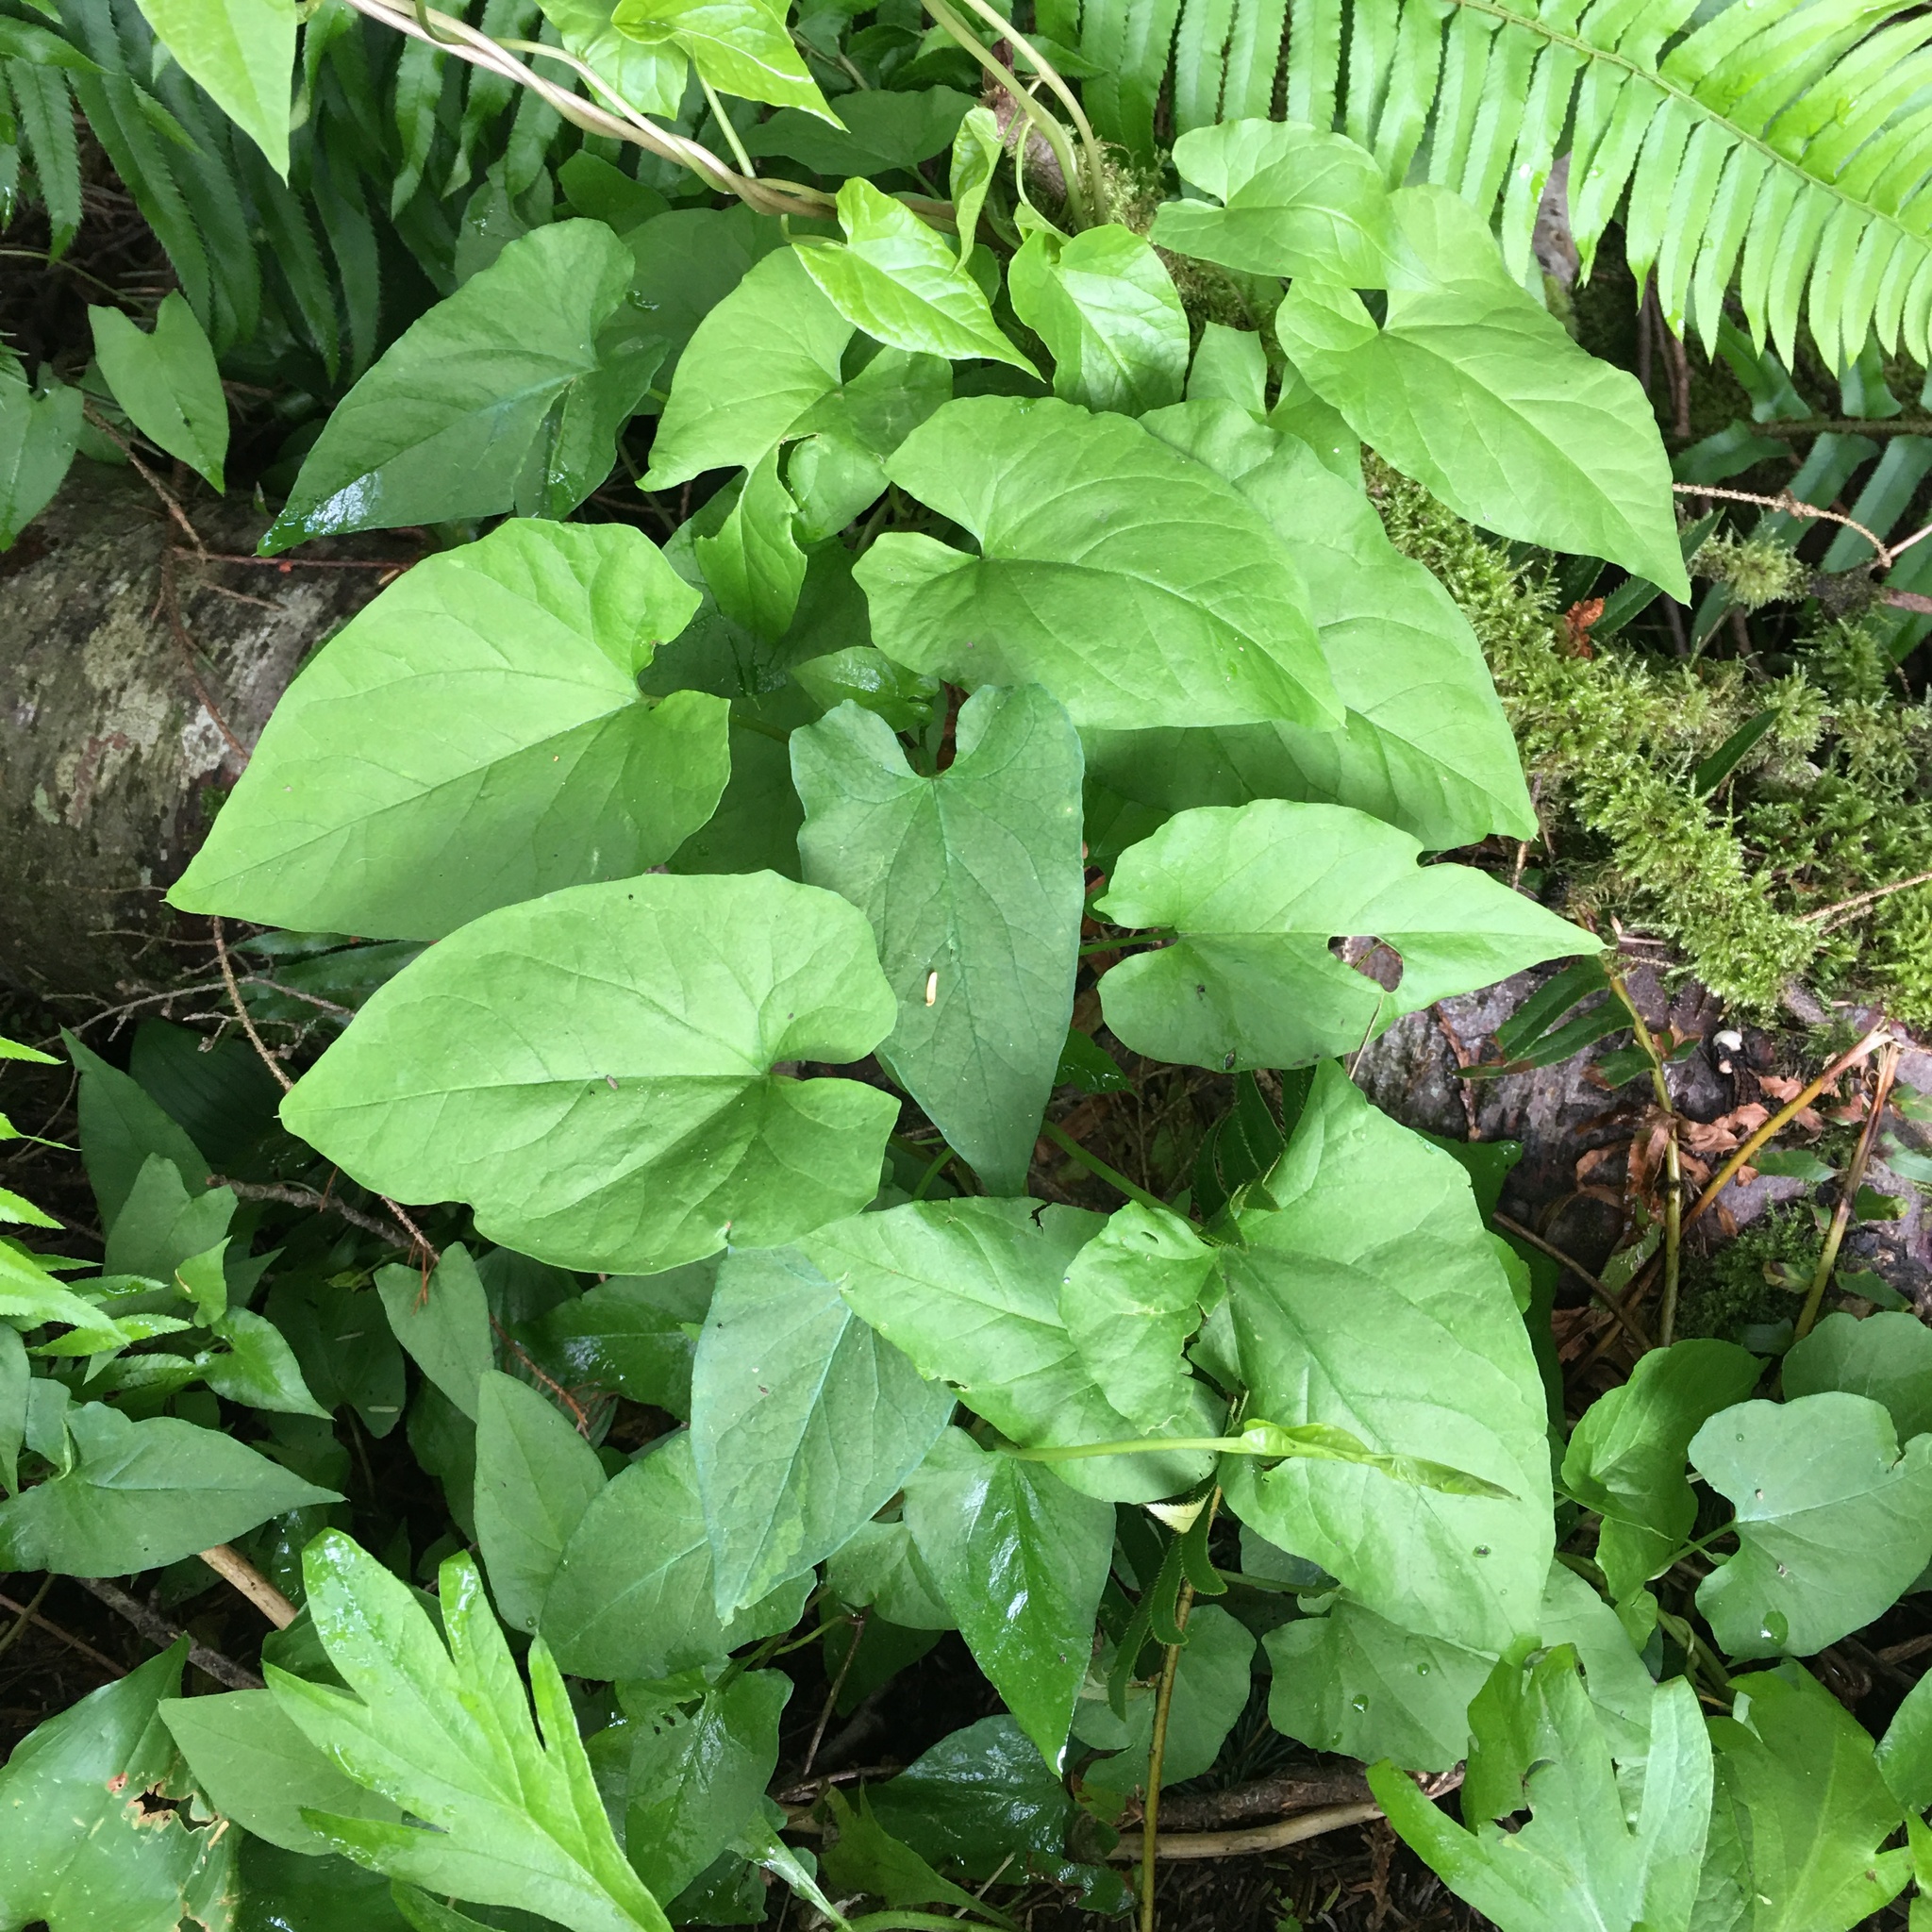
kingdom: Plantae
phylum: Tracheophyta
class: Magnoliopsida
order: Solanales
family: Convolvulaceae
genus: Calystegia
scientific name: Calystegia silvatica
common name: Large bindweed
